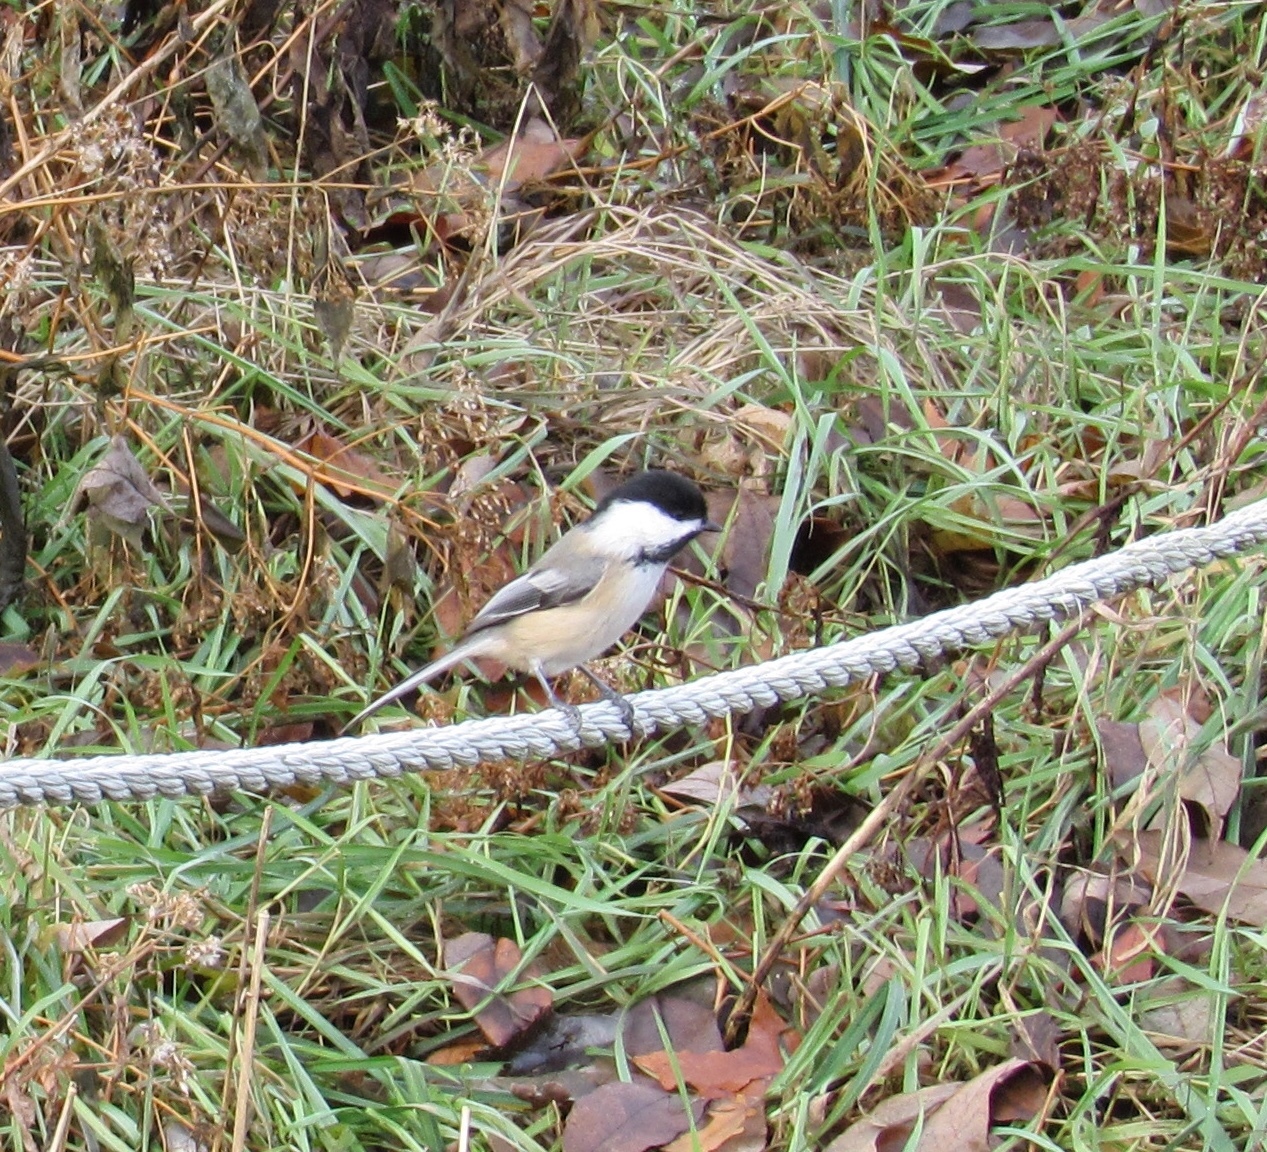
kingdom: Animalia
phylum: Chordata
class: Aves
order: Passeriformes
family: Paridae
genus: Poecile
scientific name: Poecile atricapillus
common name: Black-capped chickadee
